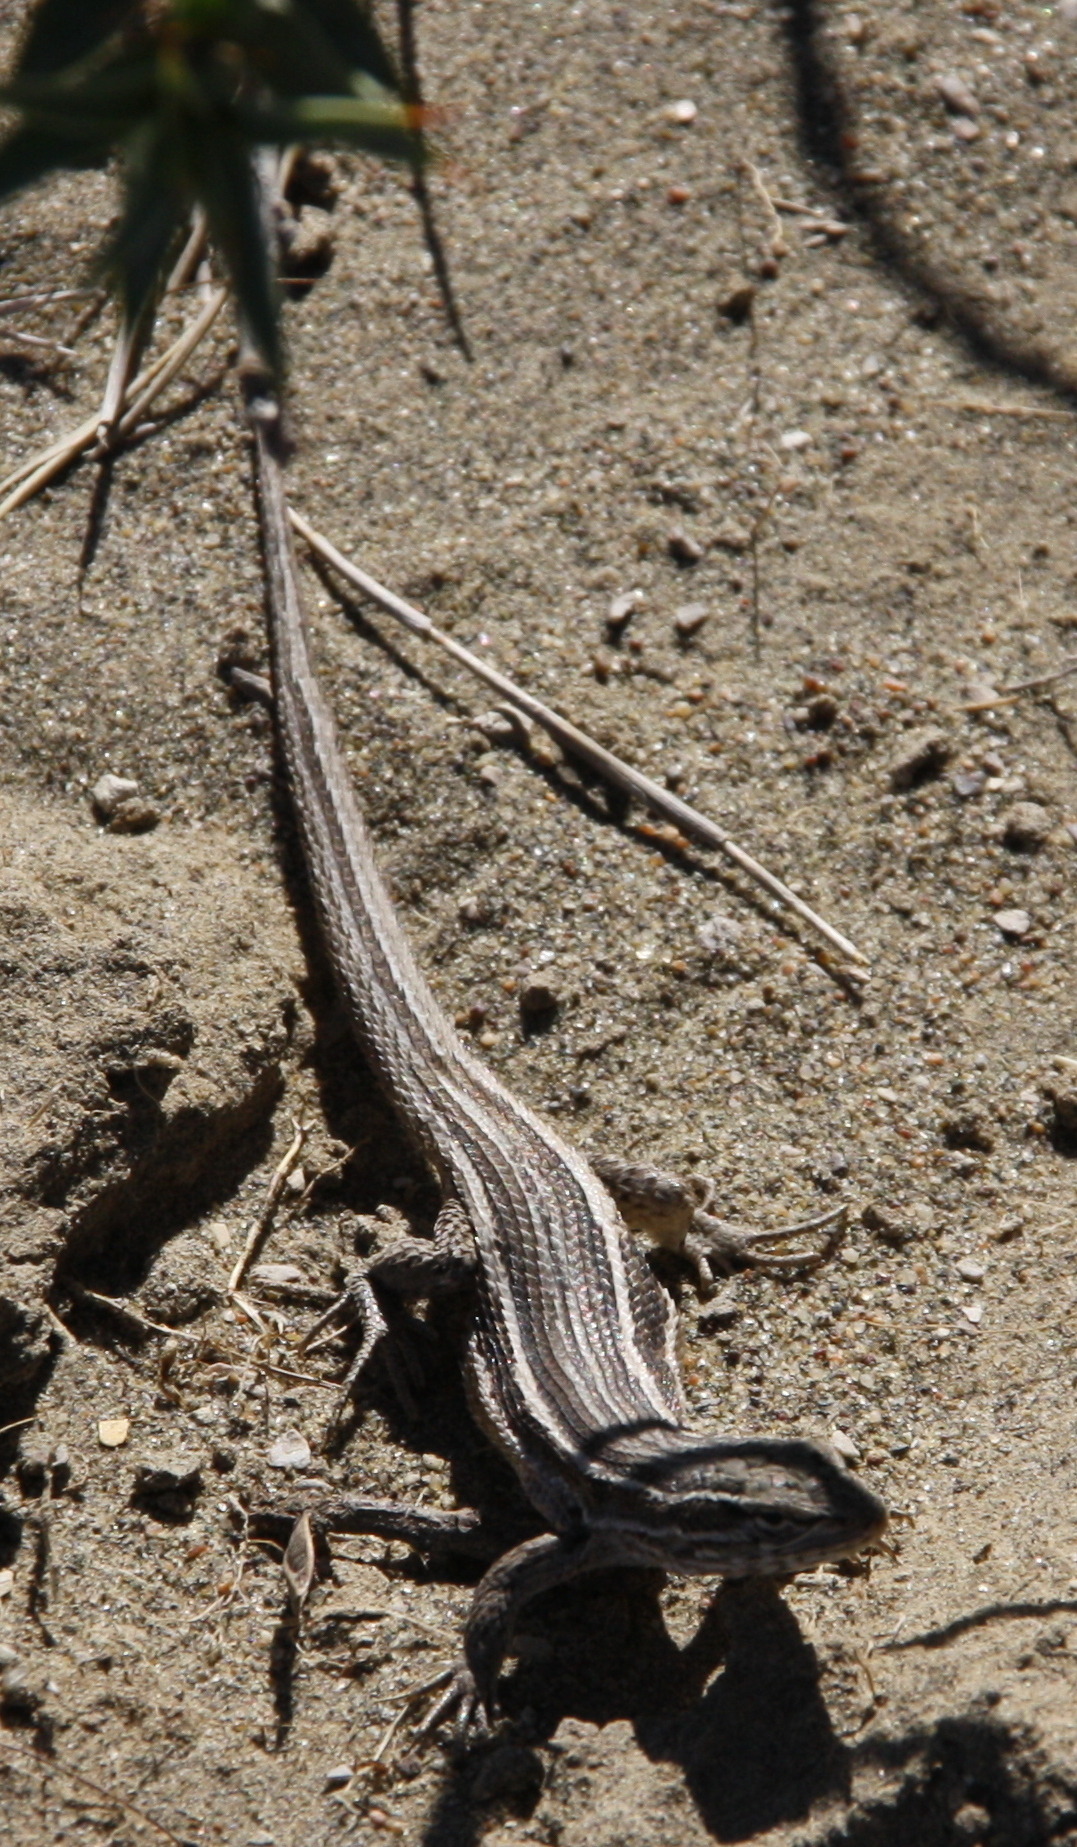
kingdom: Animalia
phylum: Chordata
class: Squamata
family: Liolaemidae
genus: Liolaemus
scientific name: Liolaemus gracilis
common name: Graceful tree iguana
